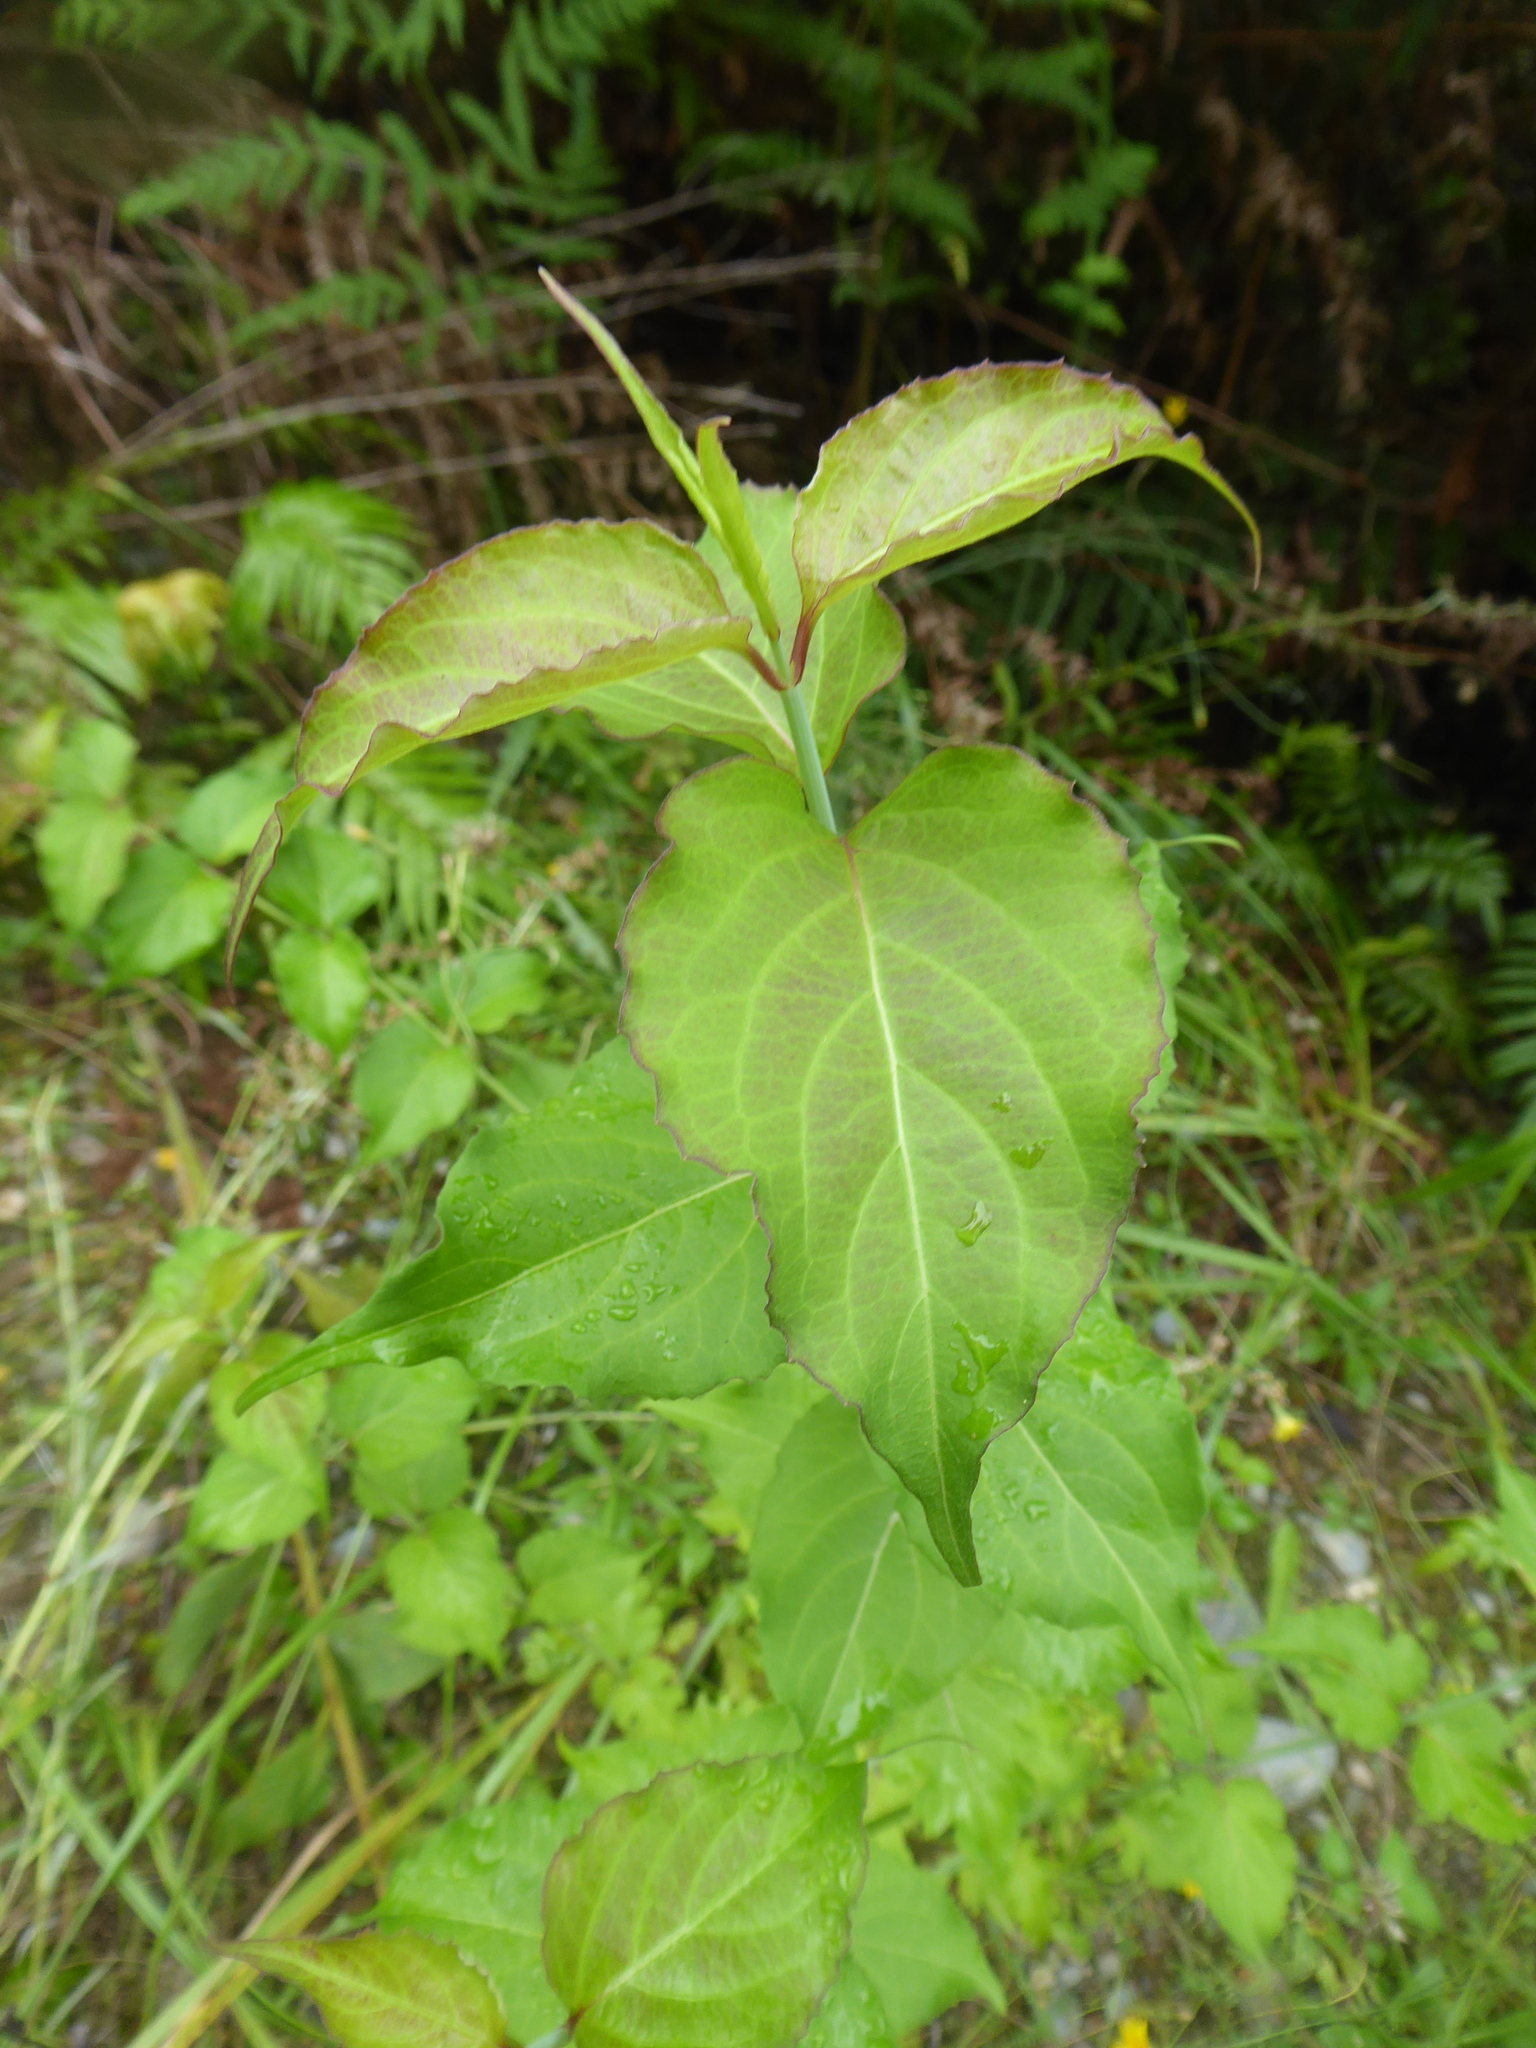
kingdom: Plantae
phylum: Tracheophyta
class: Magnoliopsida
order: Dipsacales
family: Caprifoliaceae
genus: Leycesteria
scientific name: Leycesteria formosa
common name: Himalayan honeysuckle
